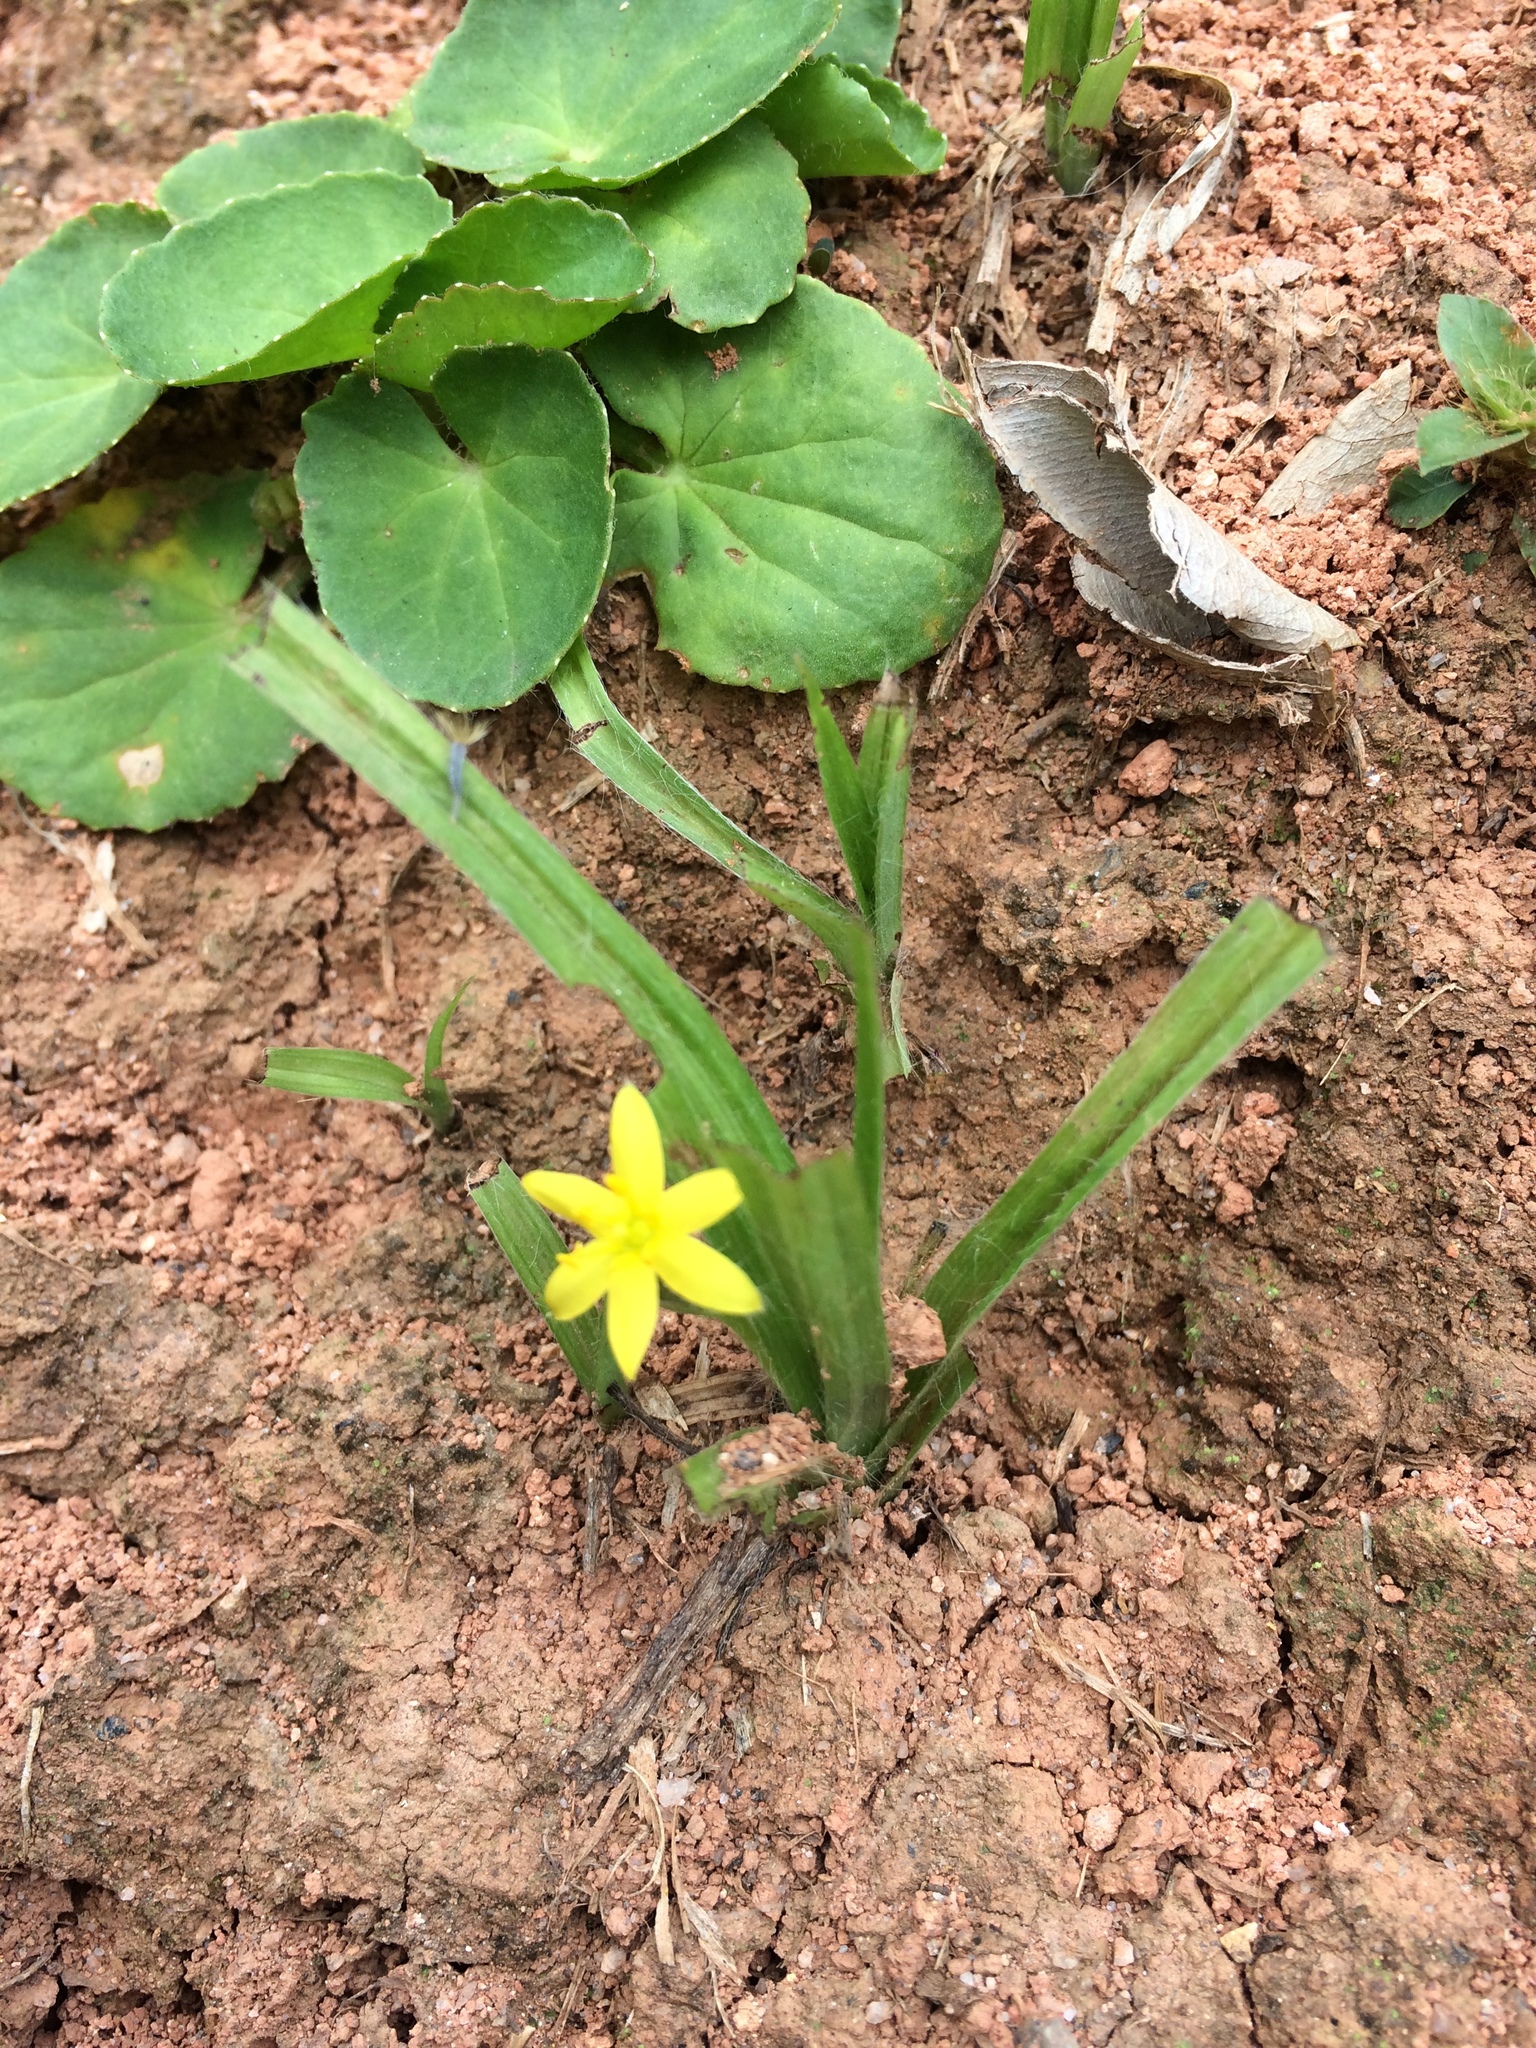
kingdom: Plantae
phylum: Tracheophyta
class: Liliopsida
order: Asparagales
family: Hypoxidaceae
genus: Hypoxis
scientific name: Hypoxis decumbens
